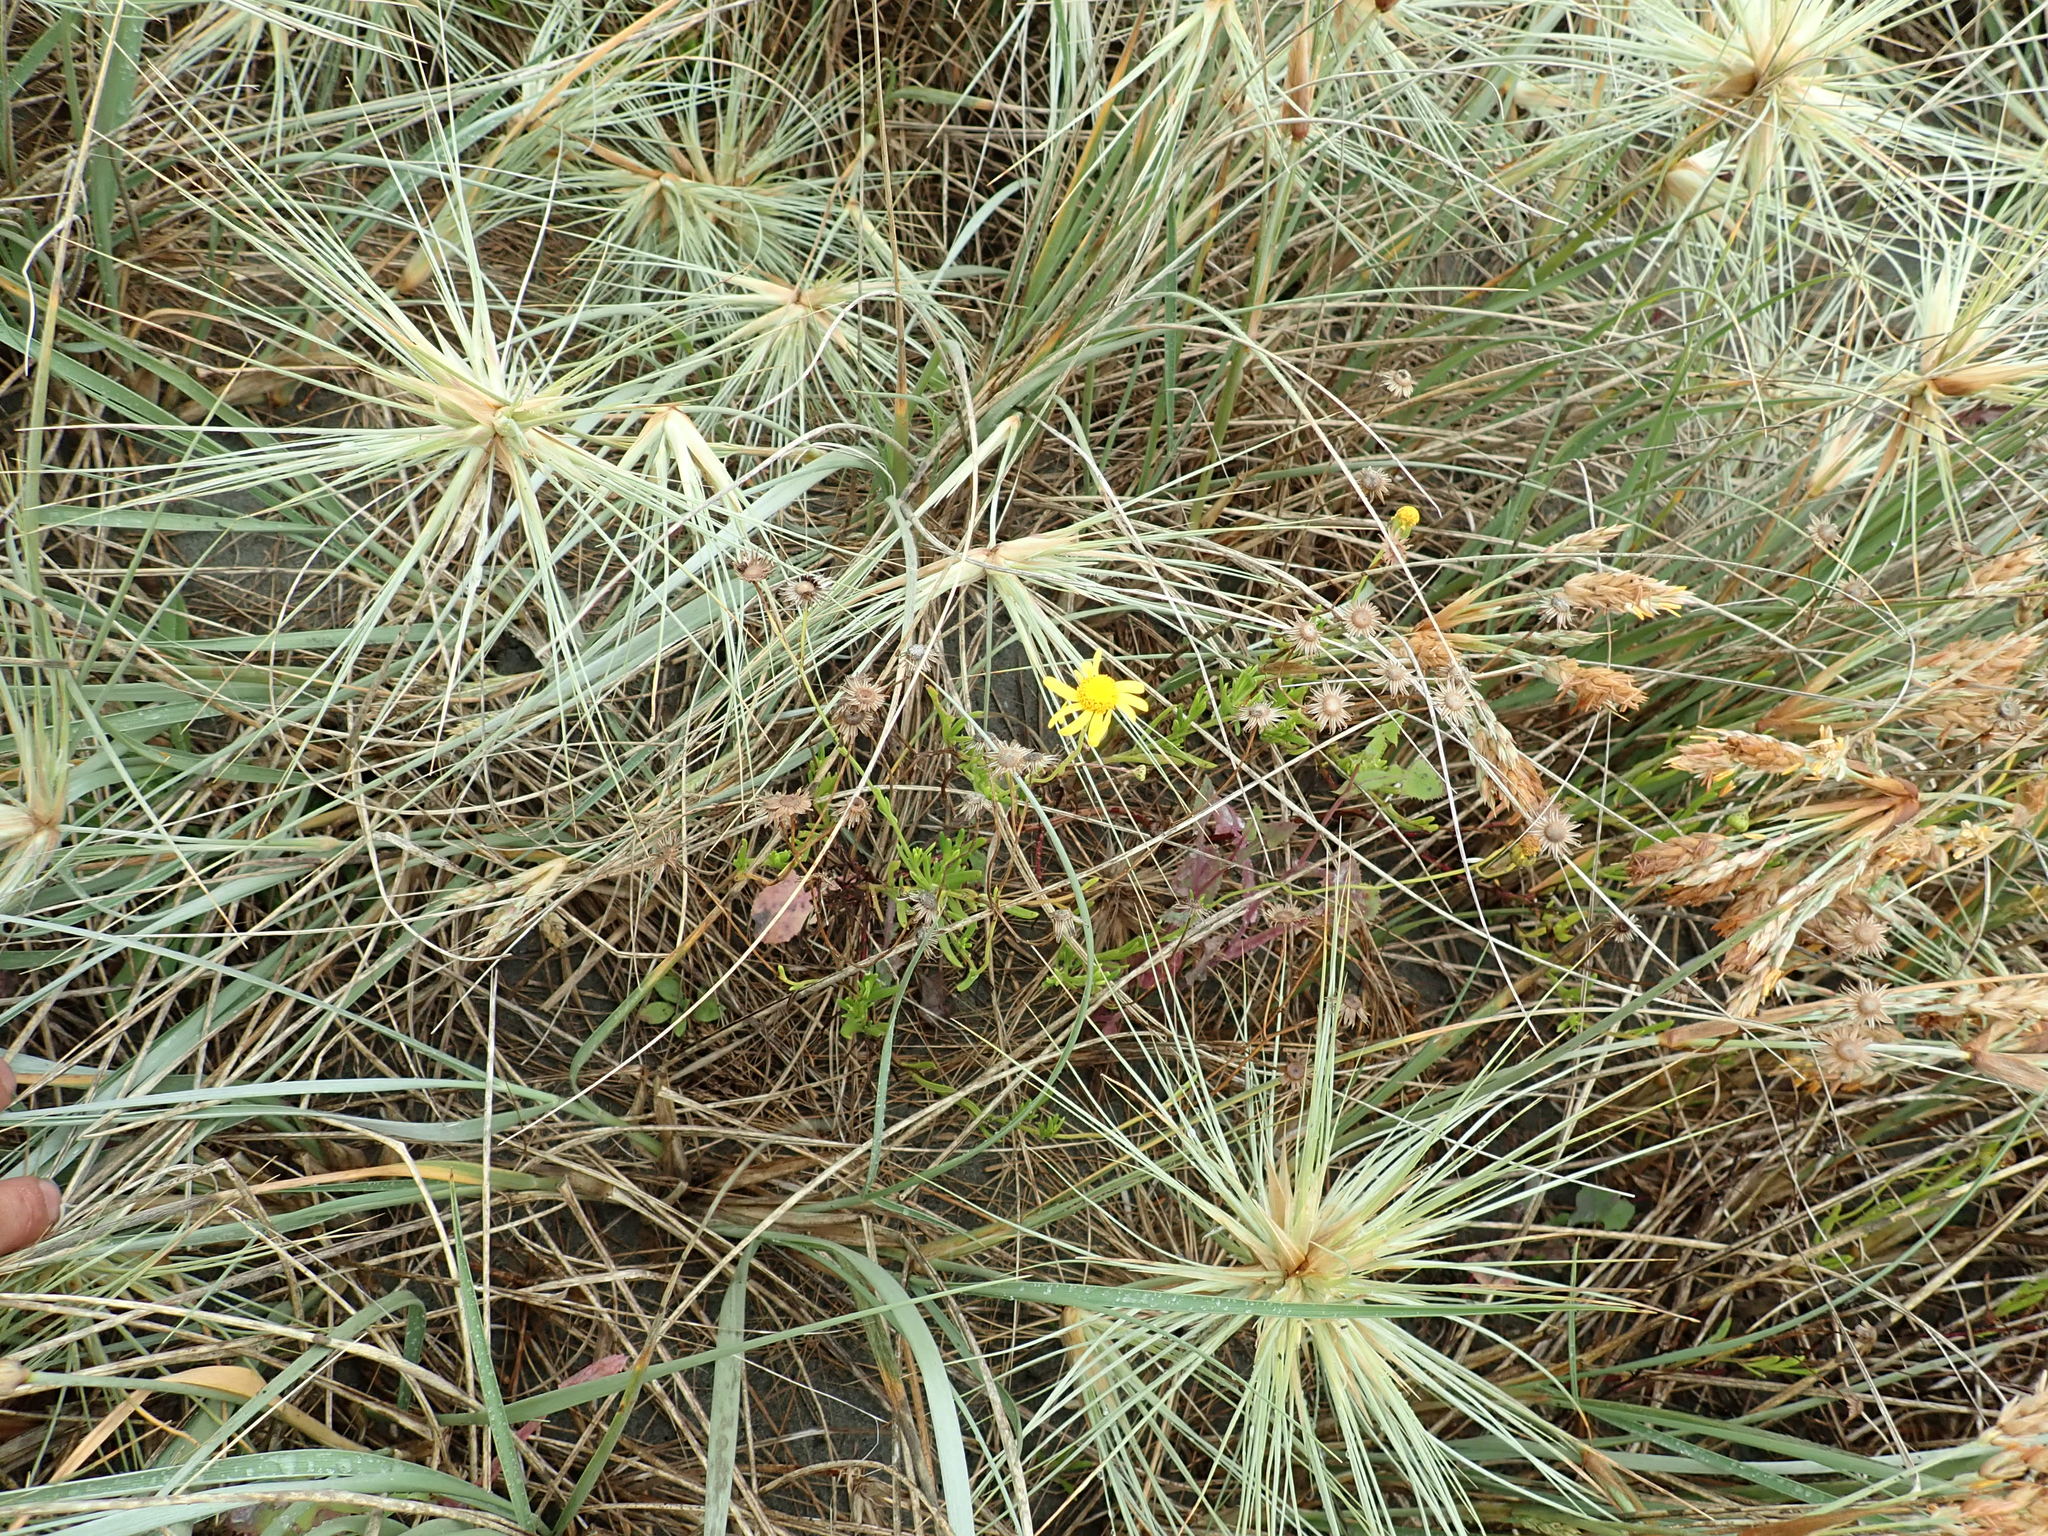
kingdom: Plantae
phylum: Tracheophyta
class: Magnoliopsida
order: Asterales
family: Asteraceae
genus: Senecio
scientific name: Senecio skirrhodon
